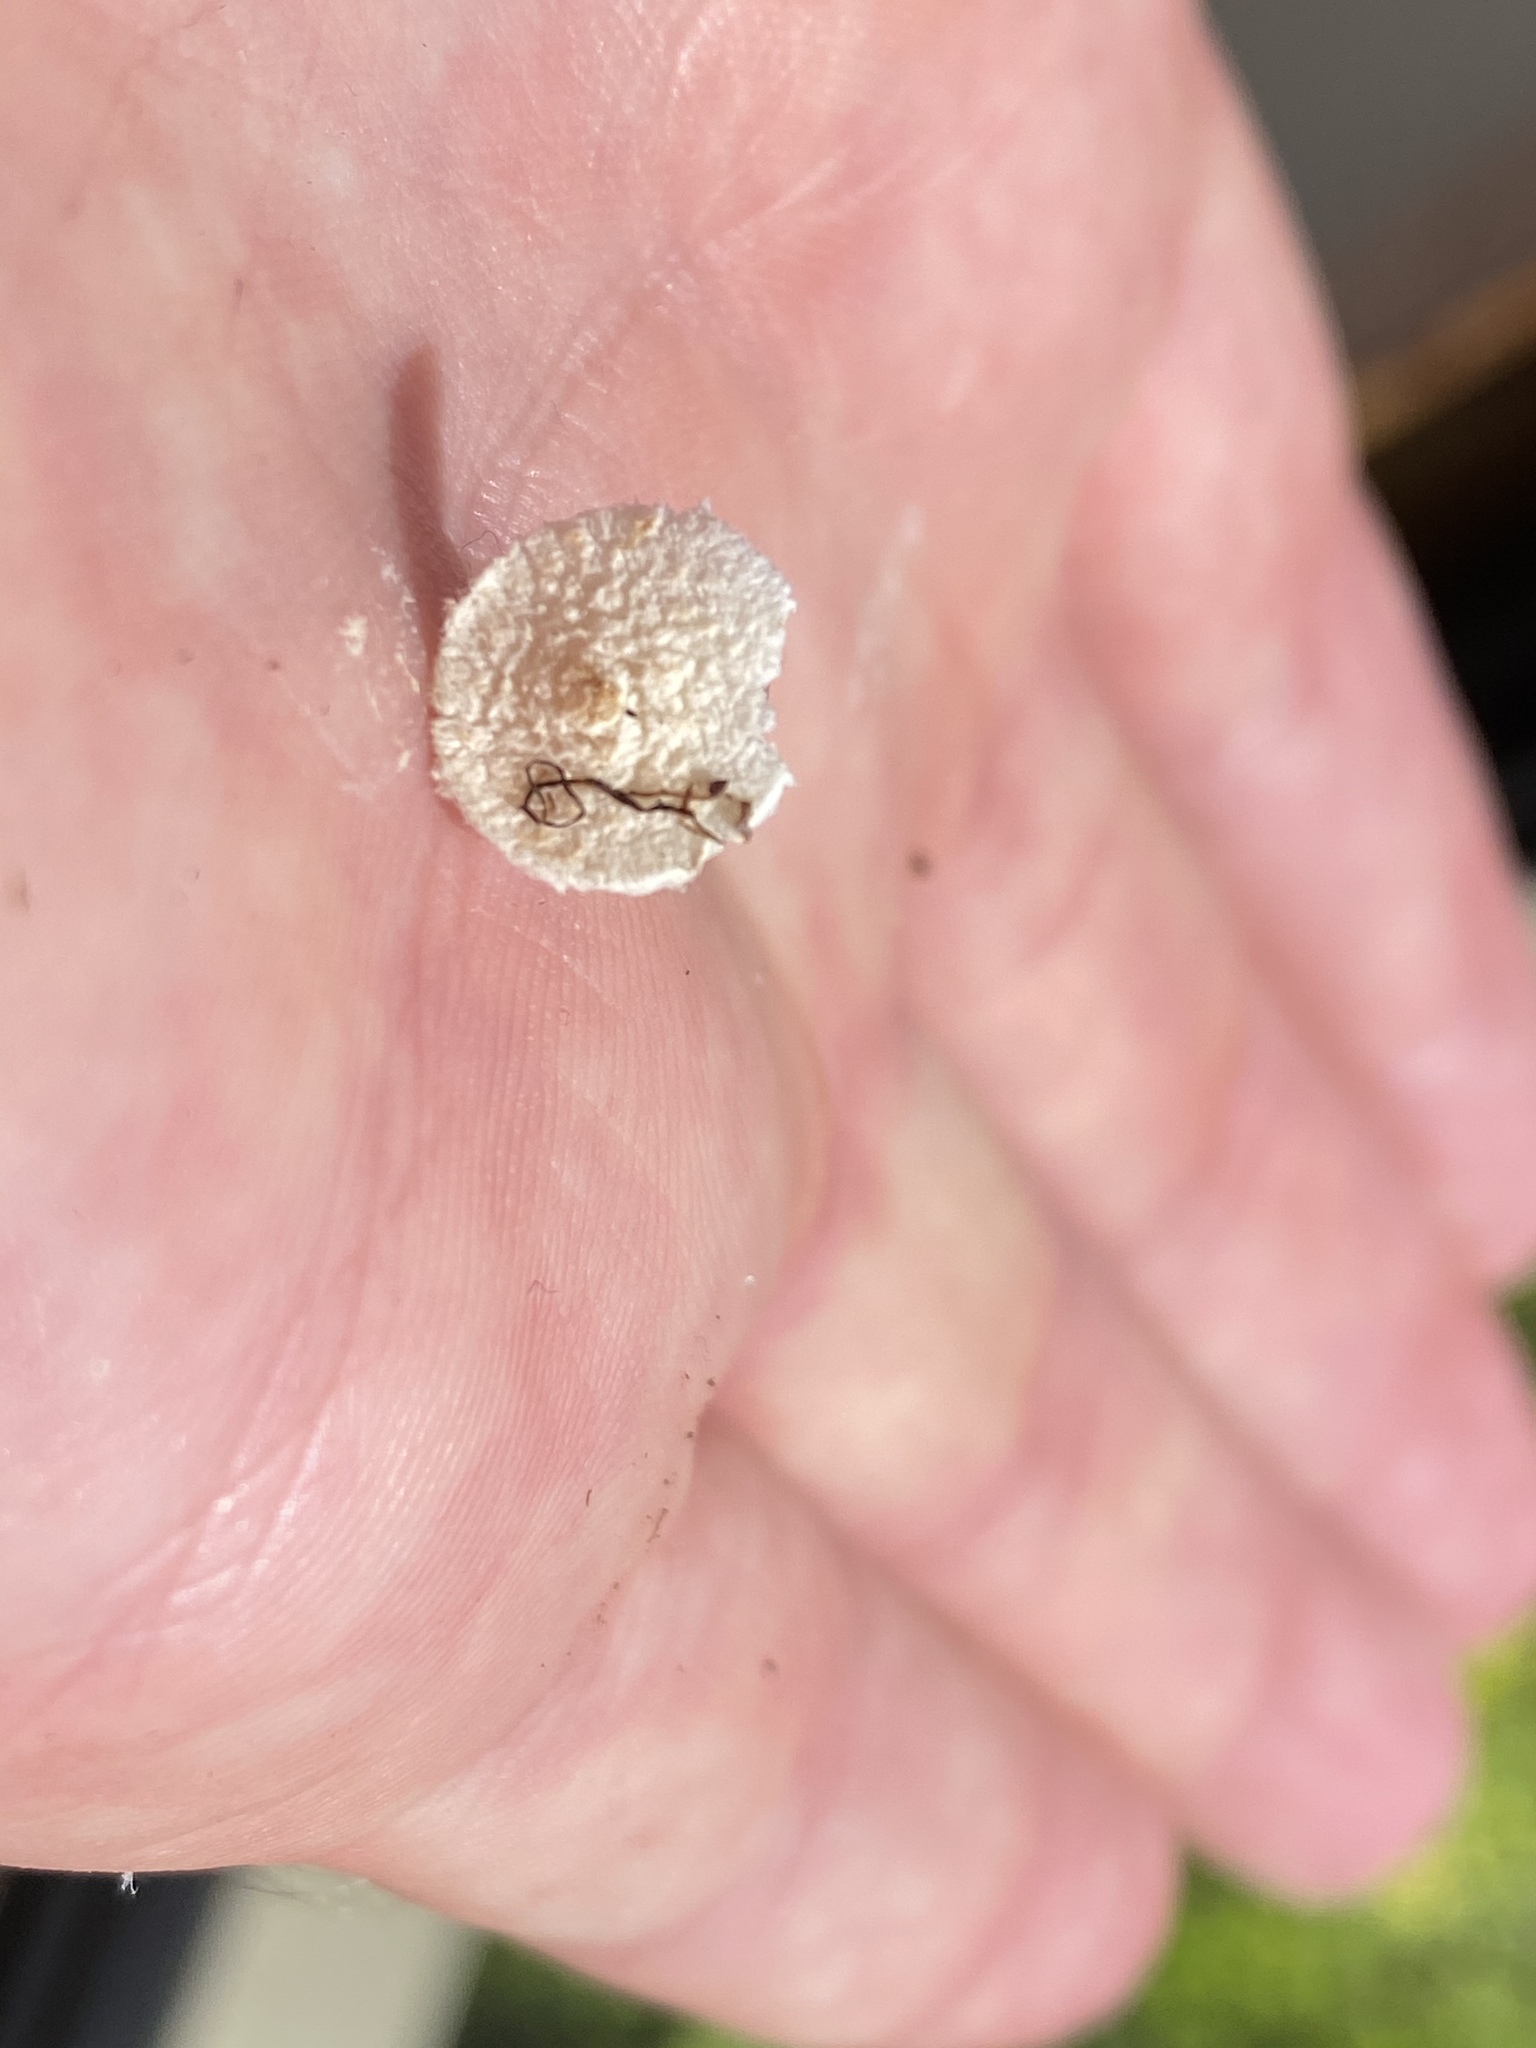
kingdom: Fungi
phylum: Basidiomycota
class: Agaricomycetes
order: Agaricales
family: Agaricaceae
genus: Cystolepiota
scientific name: Cystolepiota seminuda
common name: Bearded dapperling
